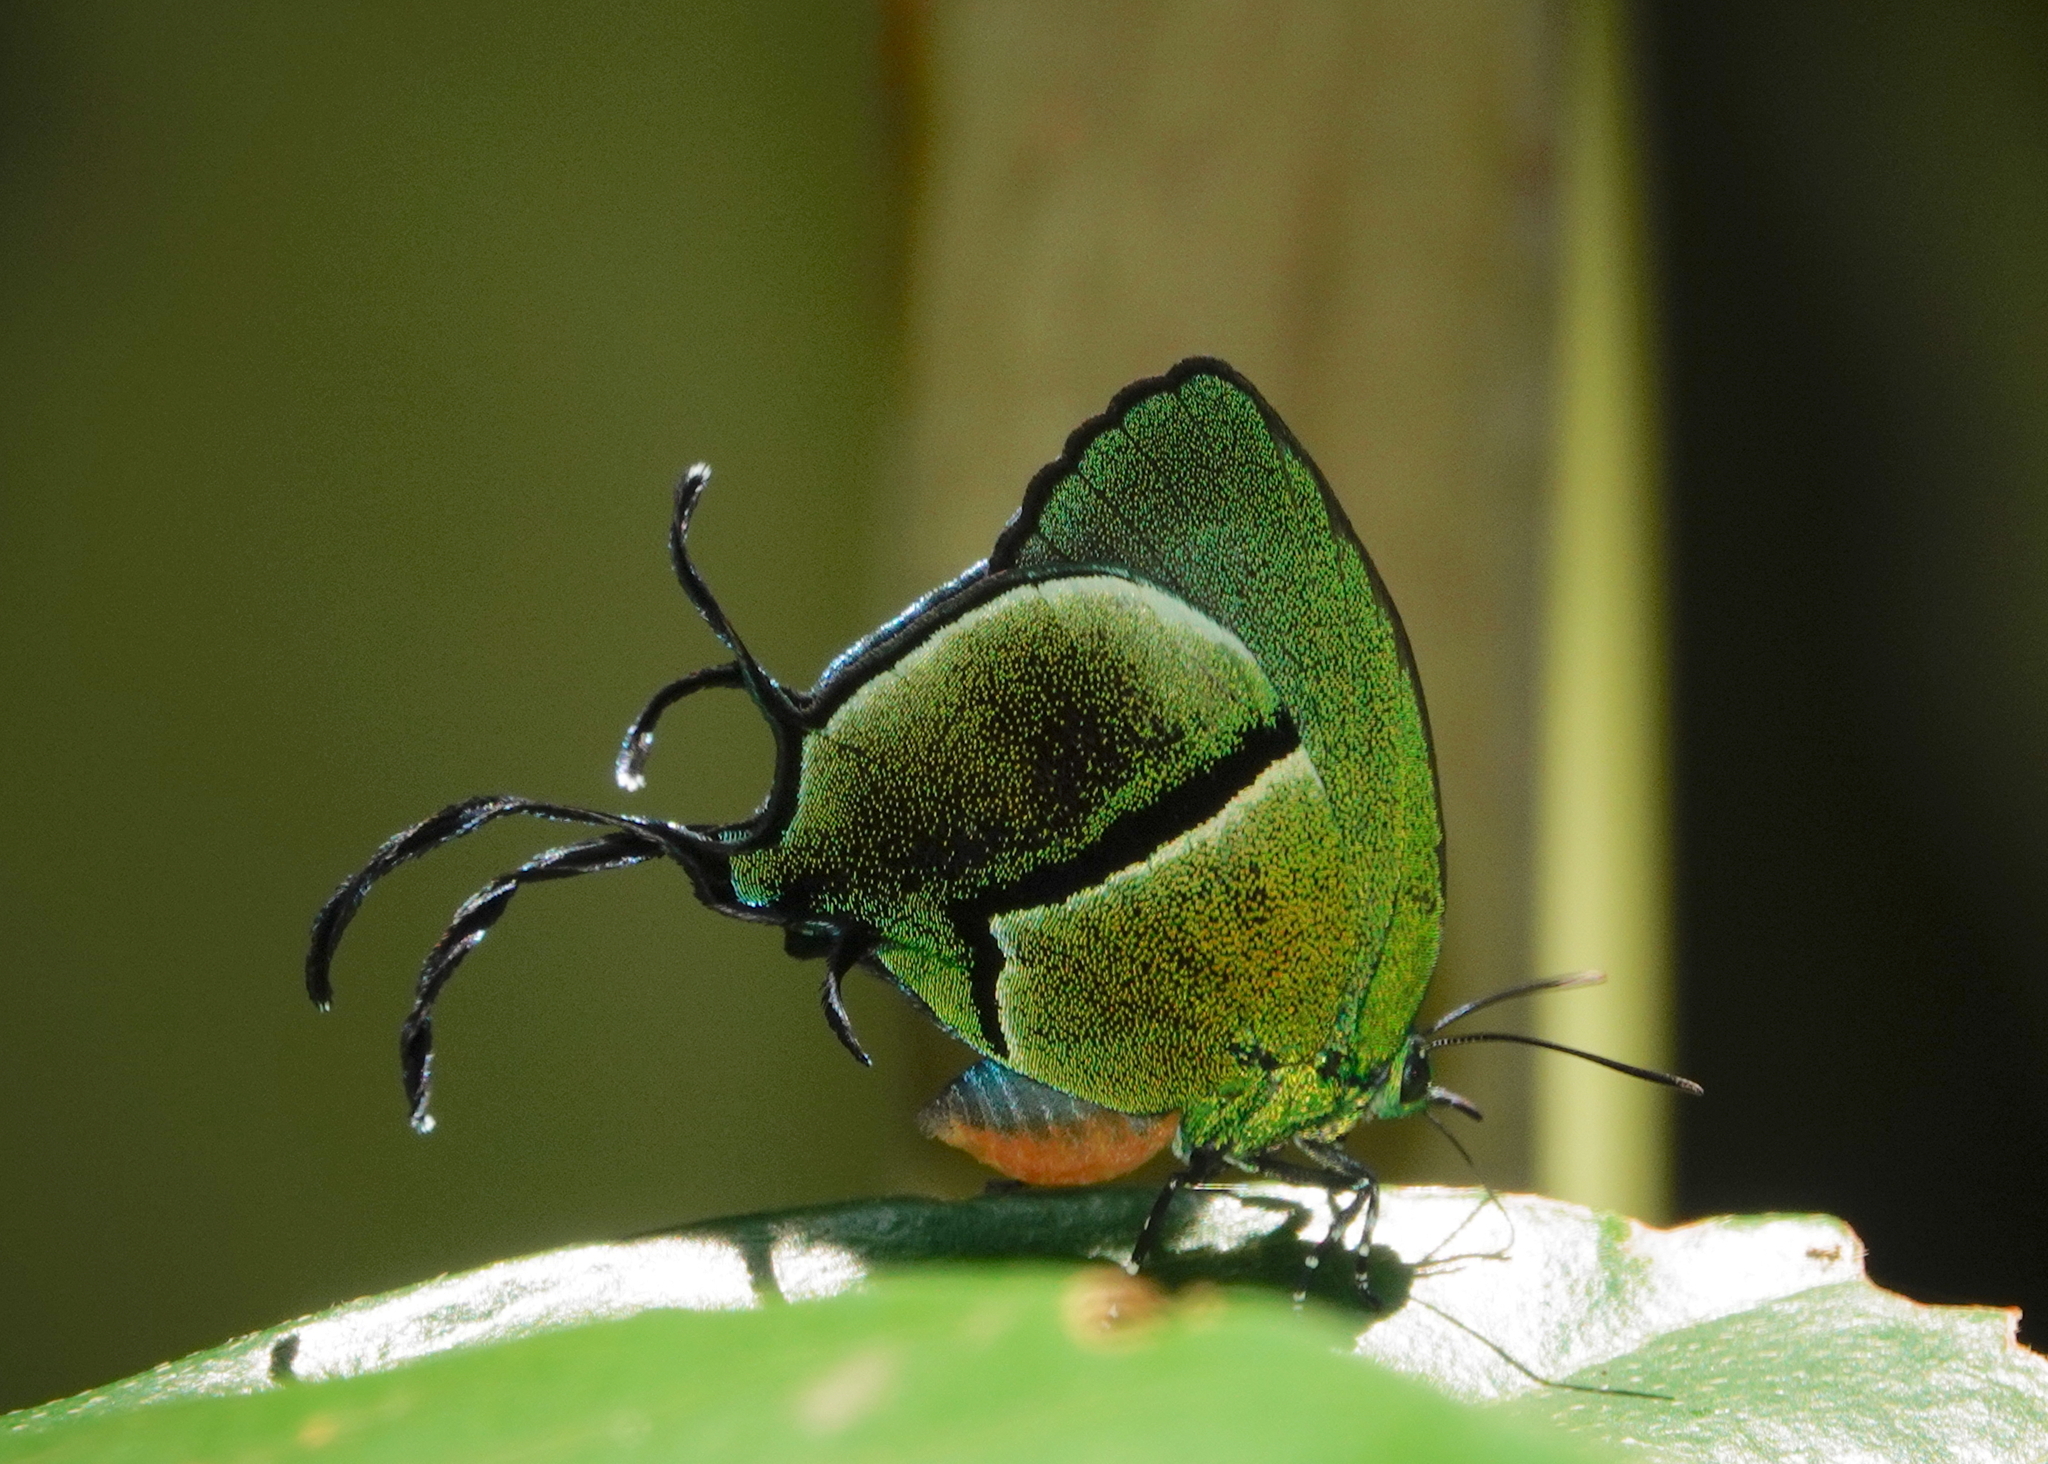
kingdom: Animalia
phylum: Arthropoda
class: Insecta
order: Lepidoptera
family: Lycaenidae
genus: Thecla
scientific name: Thecla tuneta
